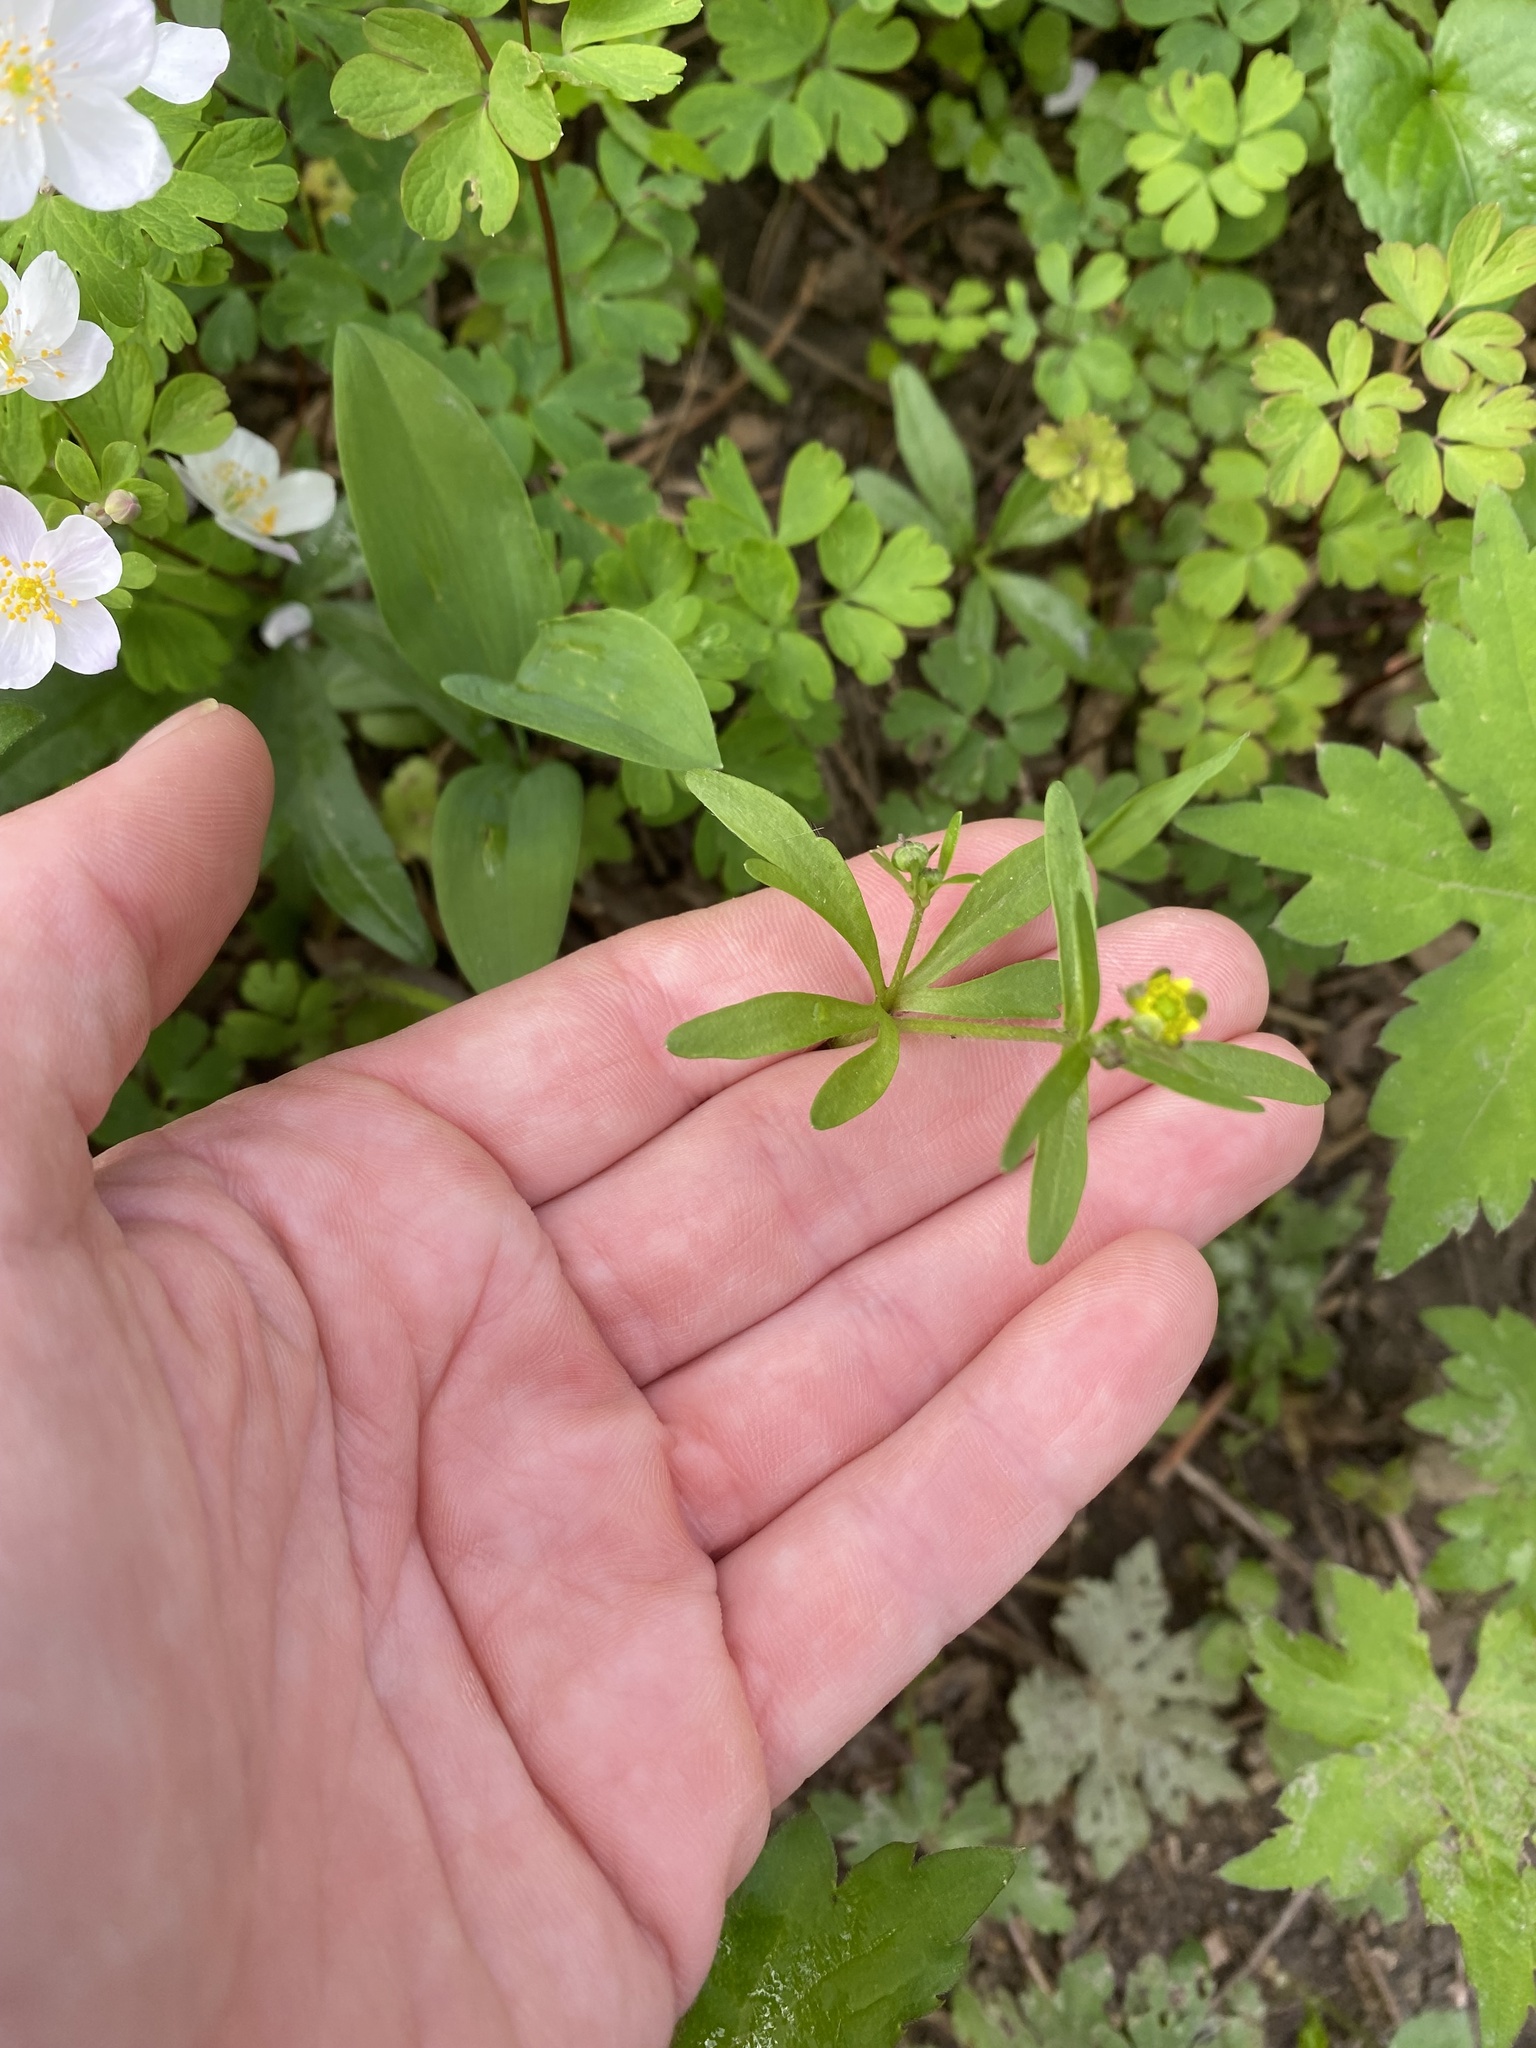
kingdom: Plantae
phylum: Tracheophyta
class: Magnoliopsida
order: Ranunculales
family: Ranunculaceae
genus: Ranunculus
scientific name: Ranunculus abortivus
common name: Early wood buttercup
